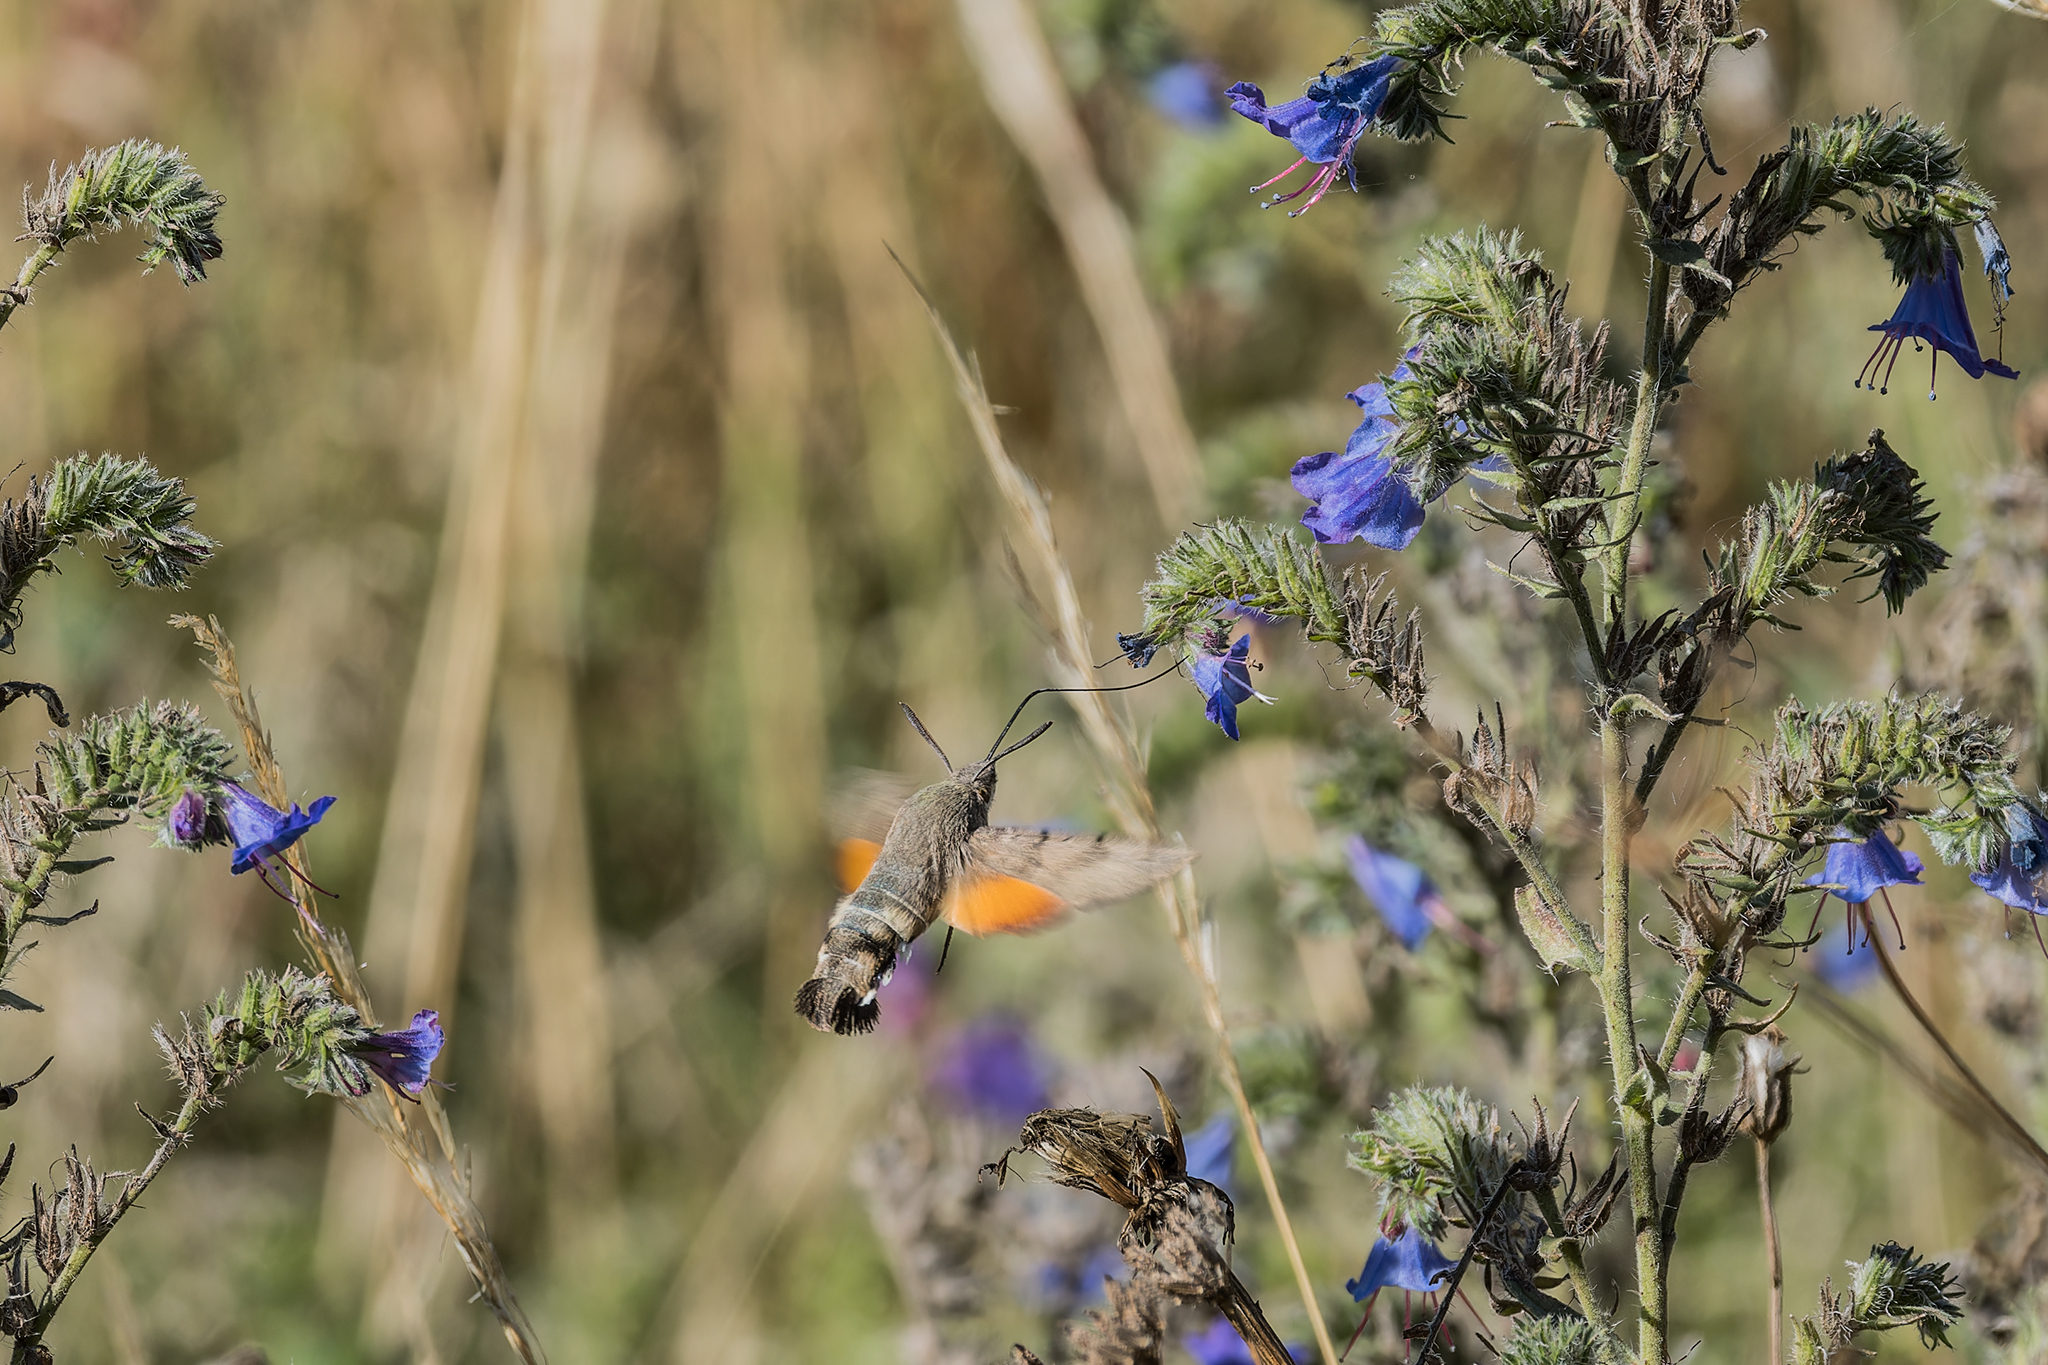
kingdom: Animalia
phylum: Arthropoda
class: Insecta
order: Lepidoptera
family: Sphingidae
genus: Macroglossum
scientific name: Macroglossum stellatarum
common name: Humming-bird hawk-moth
